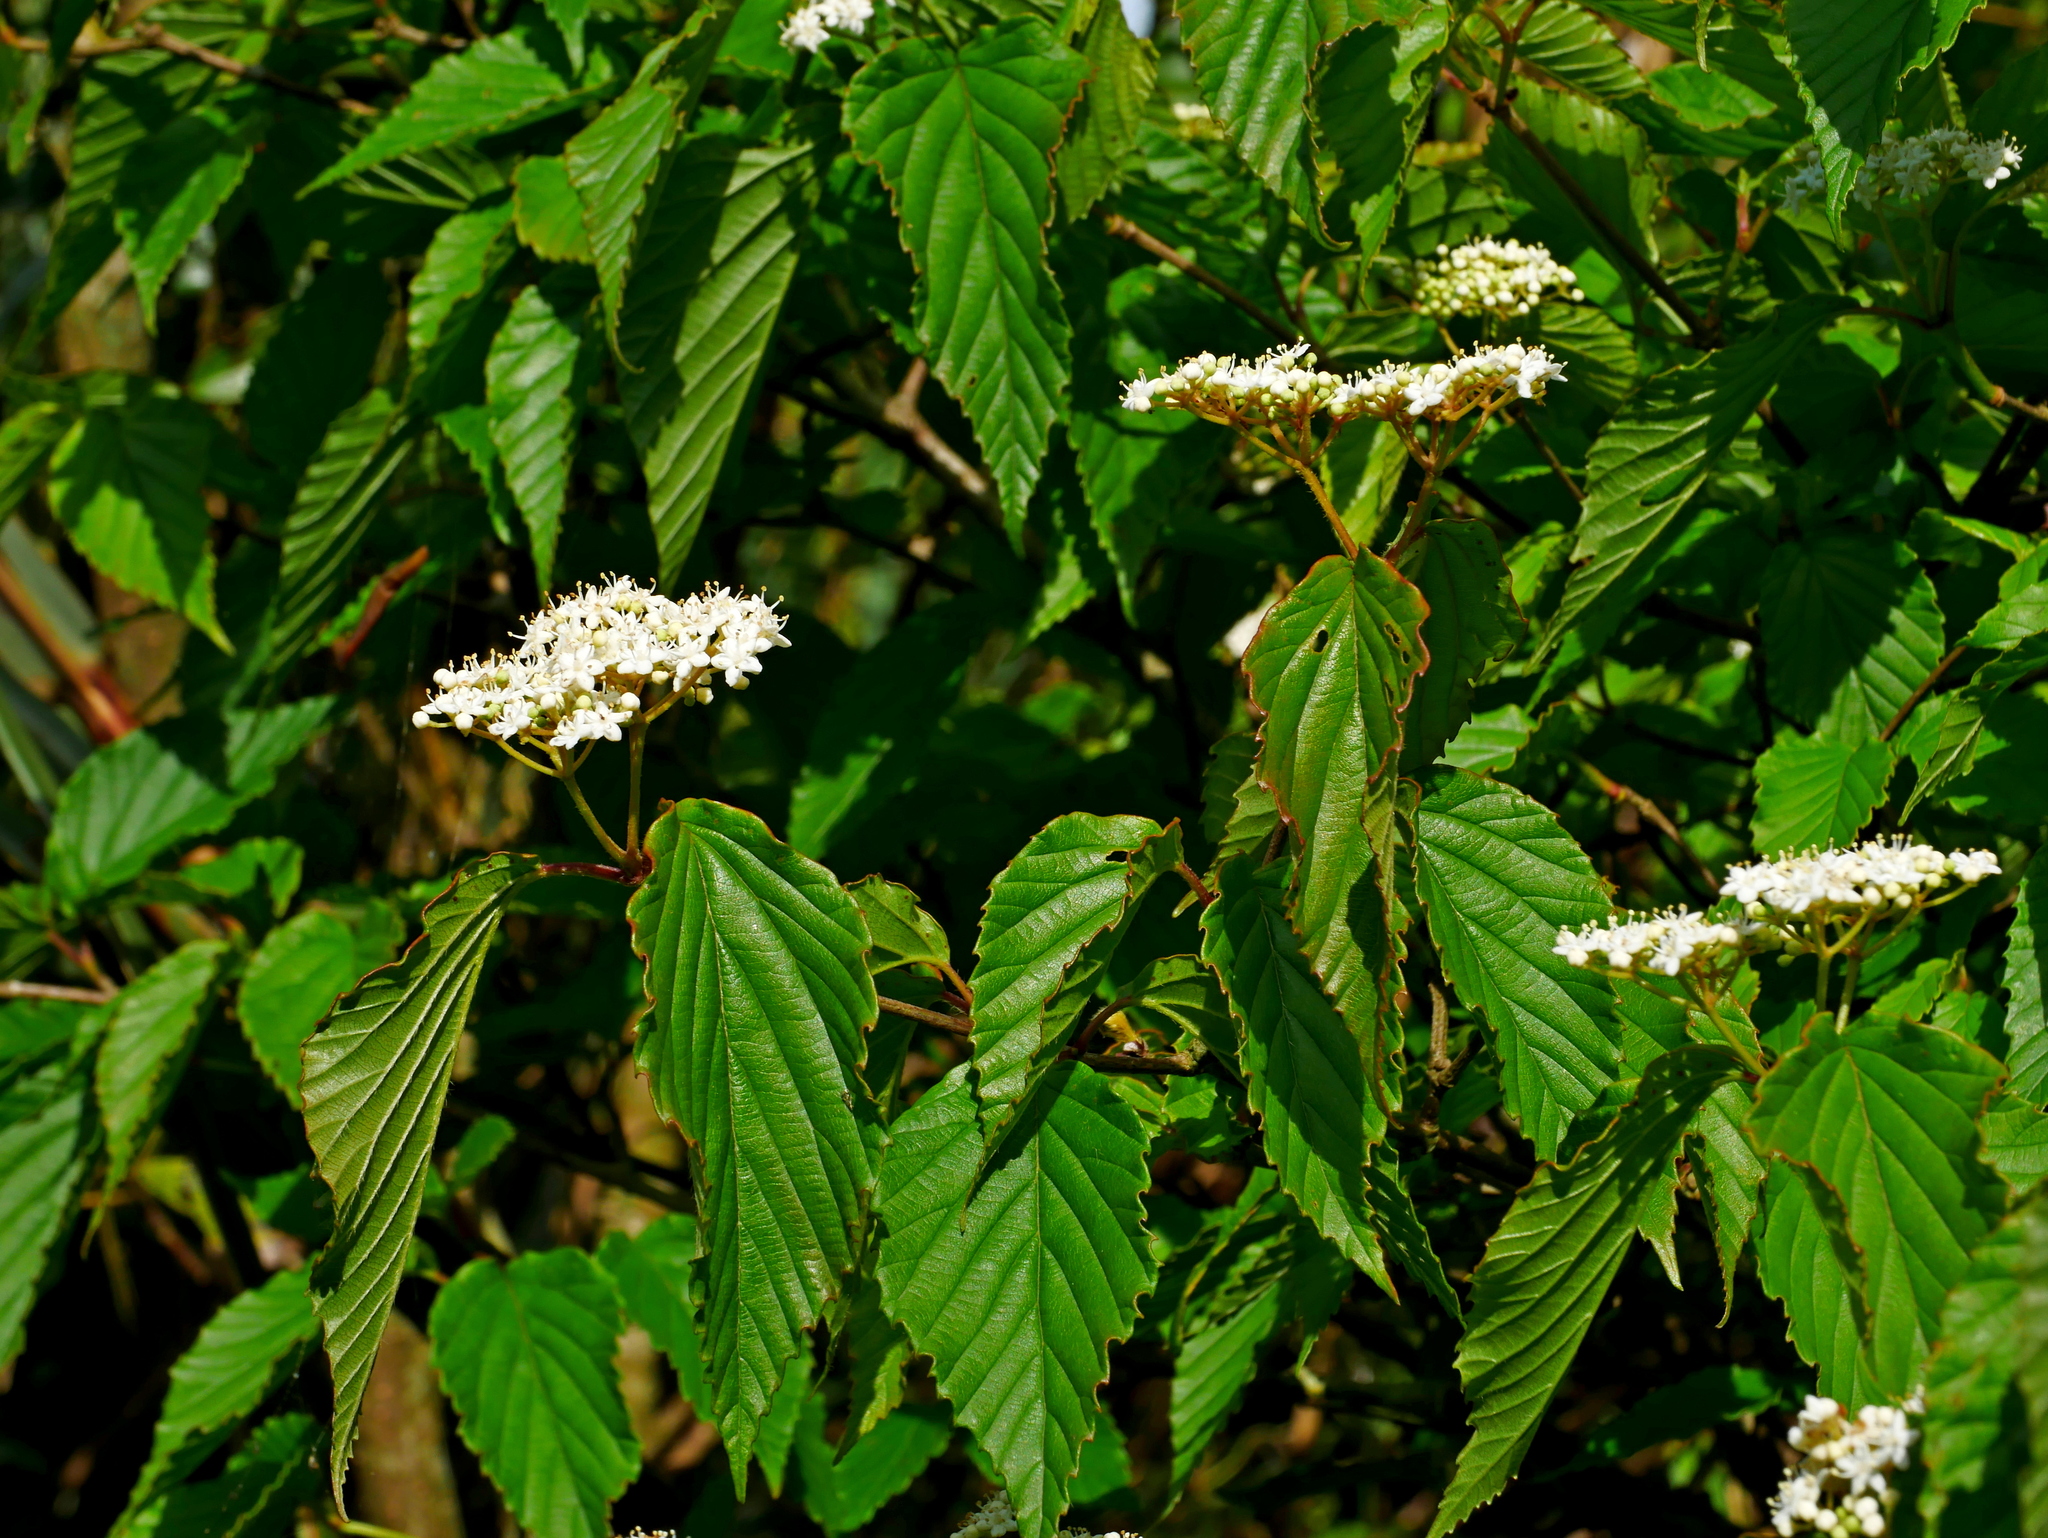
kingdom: Plantae
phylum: Tracheophyta
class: Magnoliopsida
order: Dipsacales
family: Viburnaceae
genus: Viburnum
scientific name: Viburnum luzonicum
